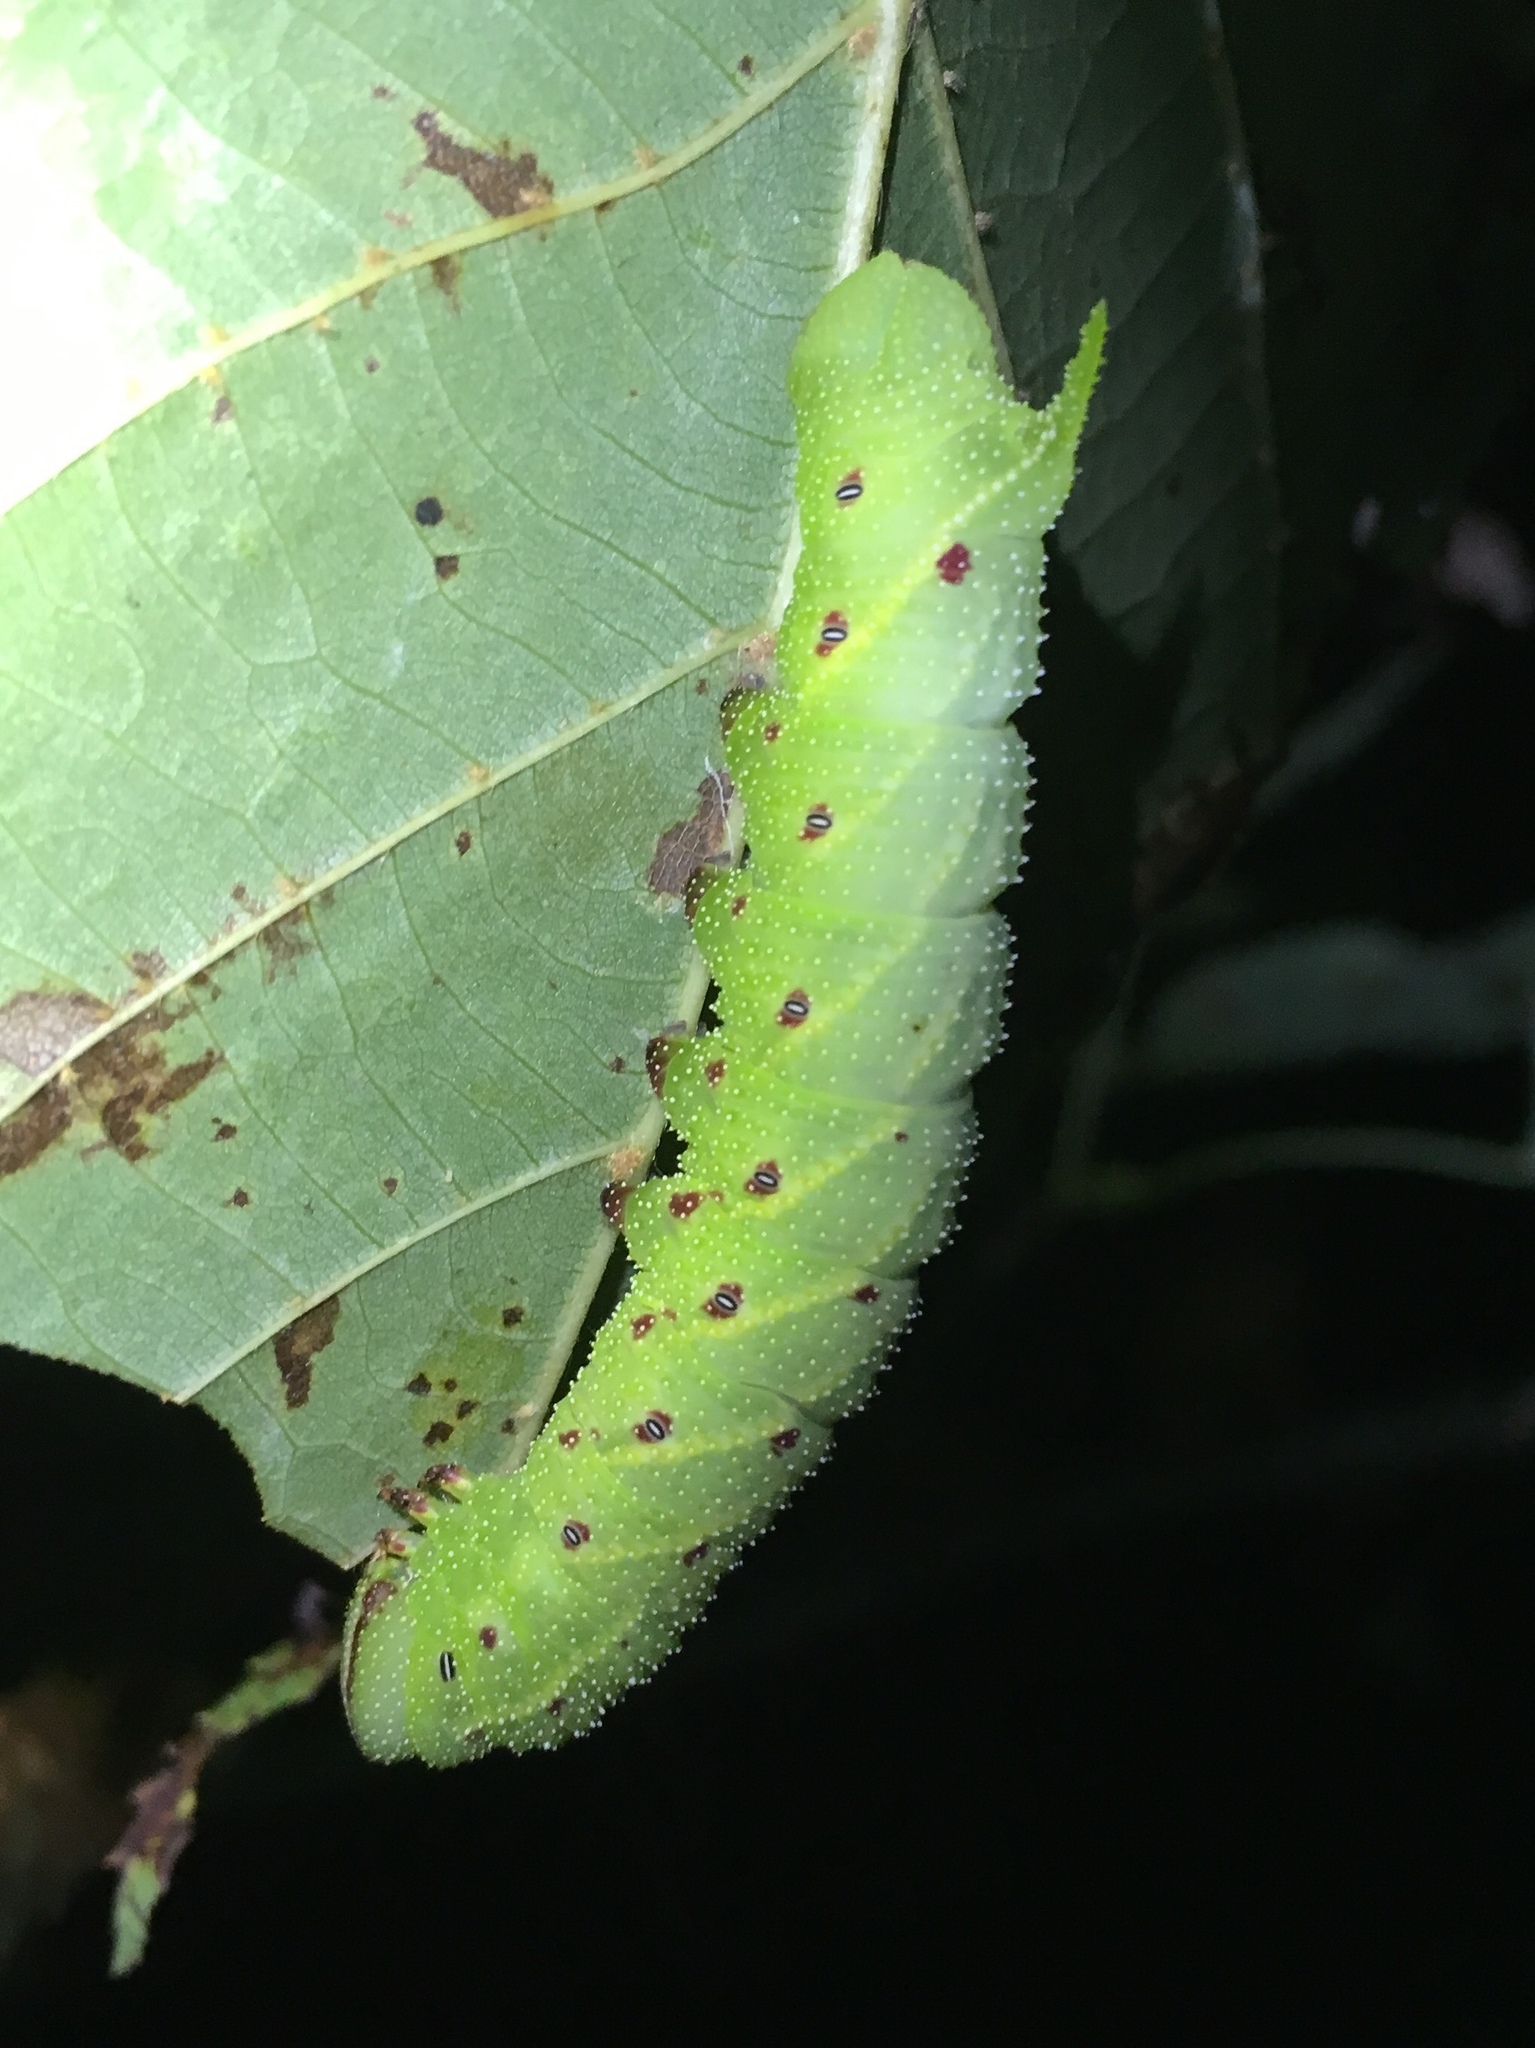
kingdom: Animalia
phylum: Arthropoda
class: Insecta
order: Lepidoptera
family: Sphingidae
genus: Paonias
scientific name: Paonias excaecata
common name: Blind-eyed sphinx
